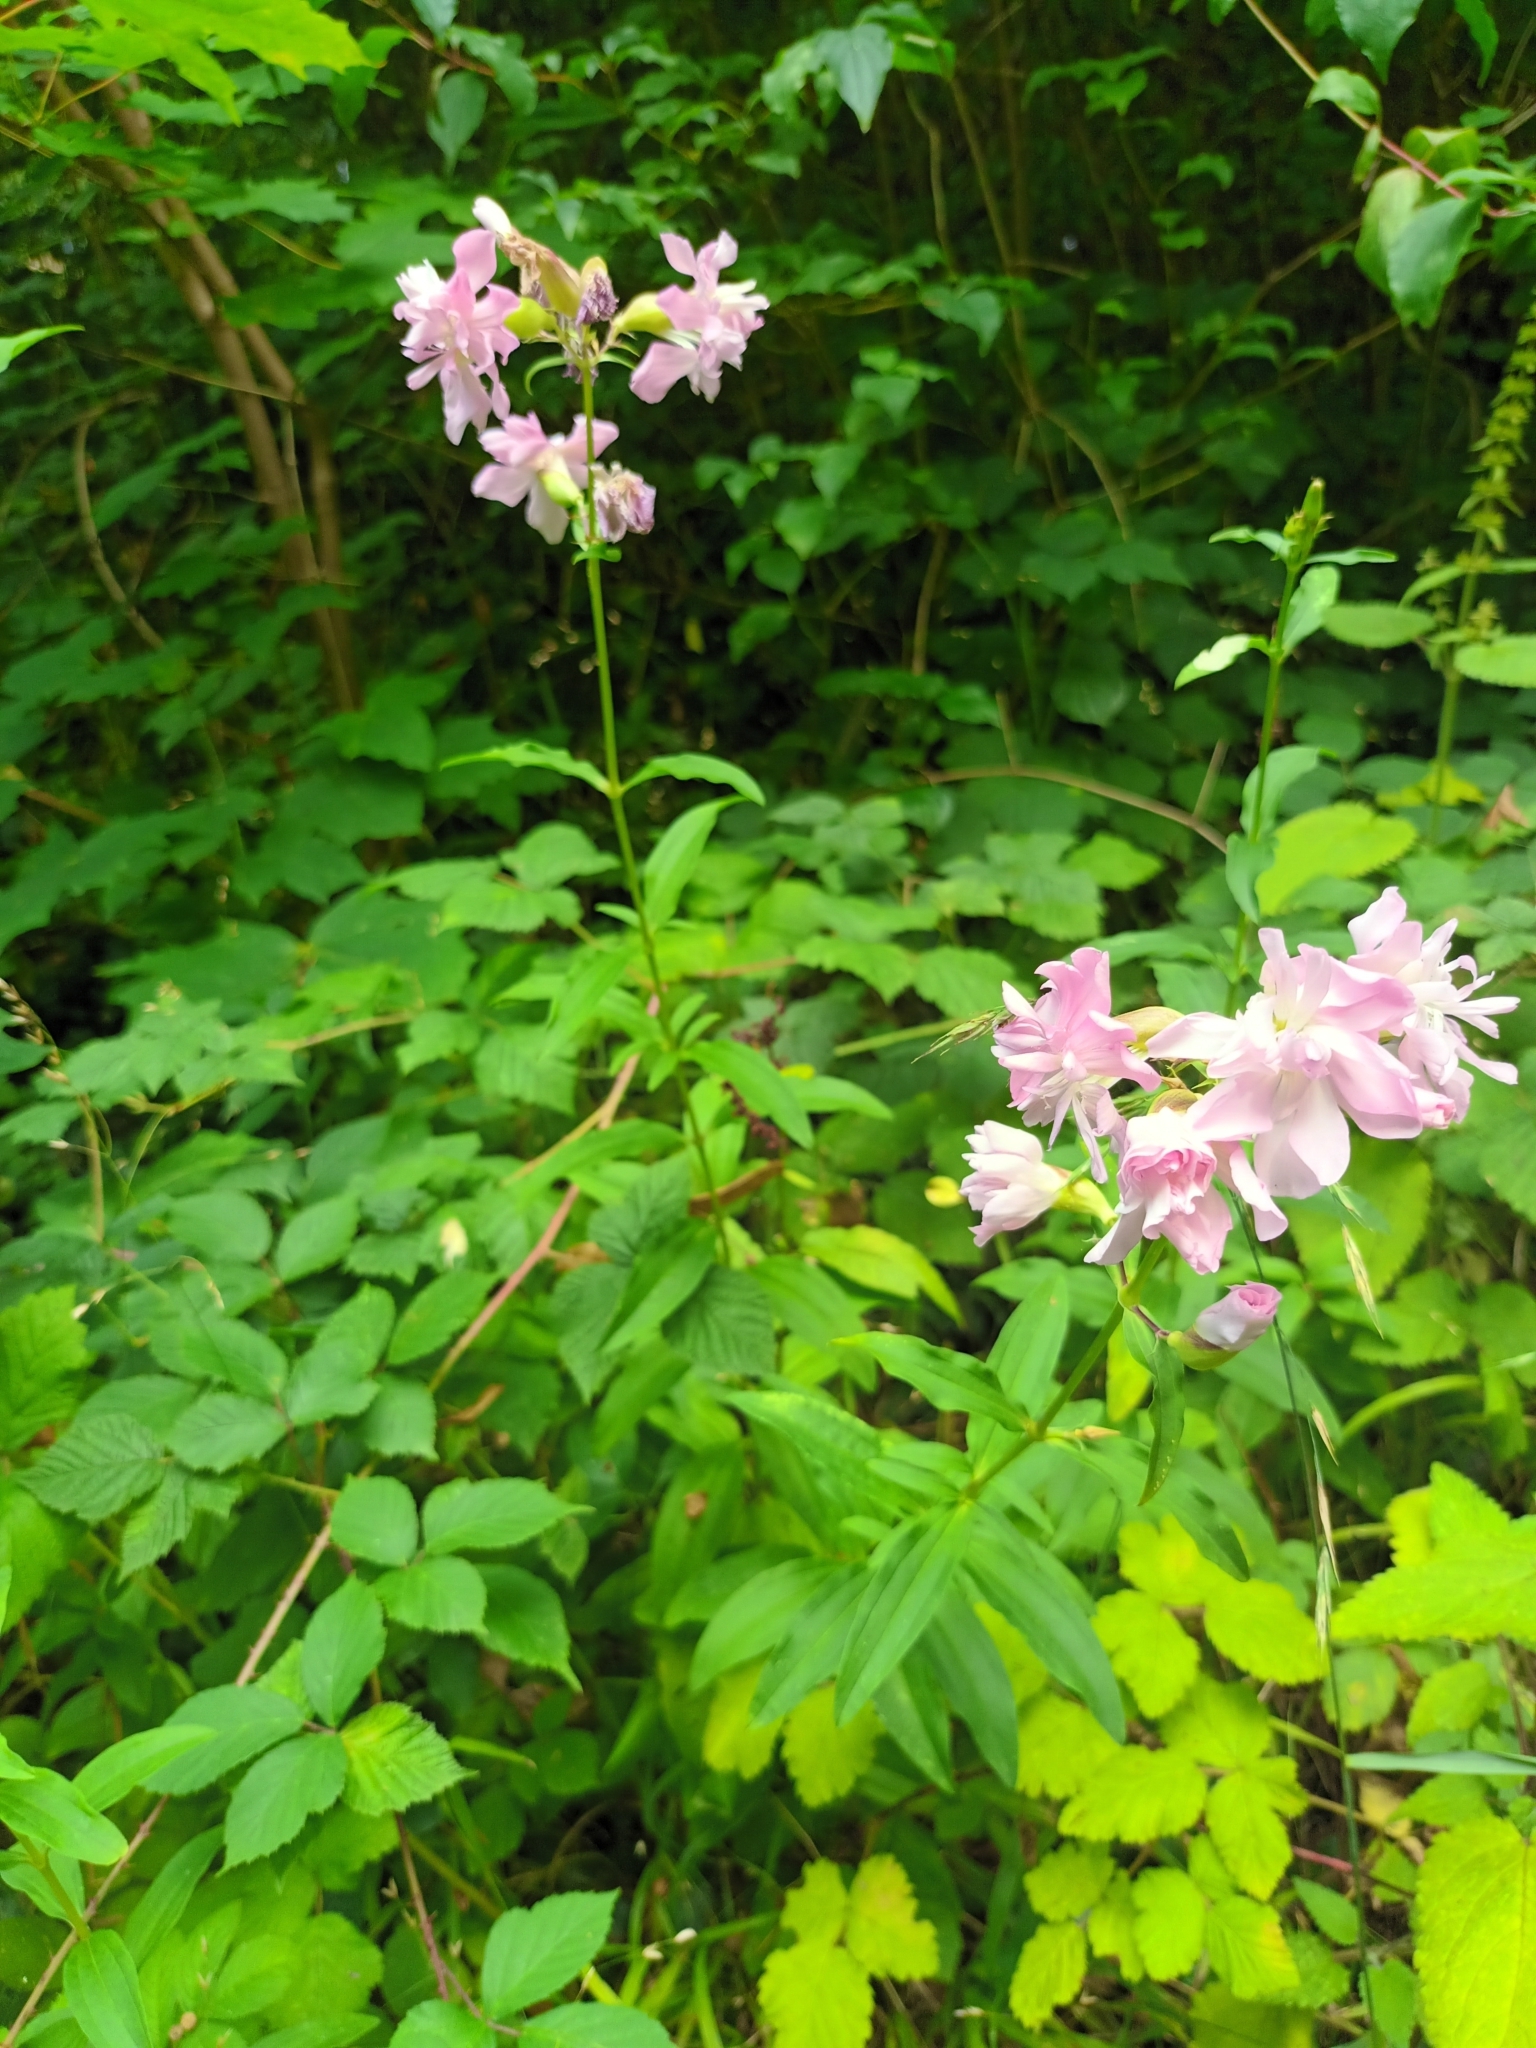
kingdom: Plantae
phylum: Tracheophyta
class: Magnoliopsida
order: Caryophyllales
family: Caryophyllaceae
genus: Saponaria
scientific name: Saponaria officinalis
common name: Soapwort
